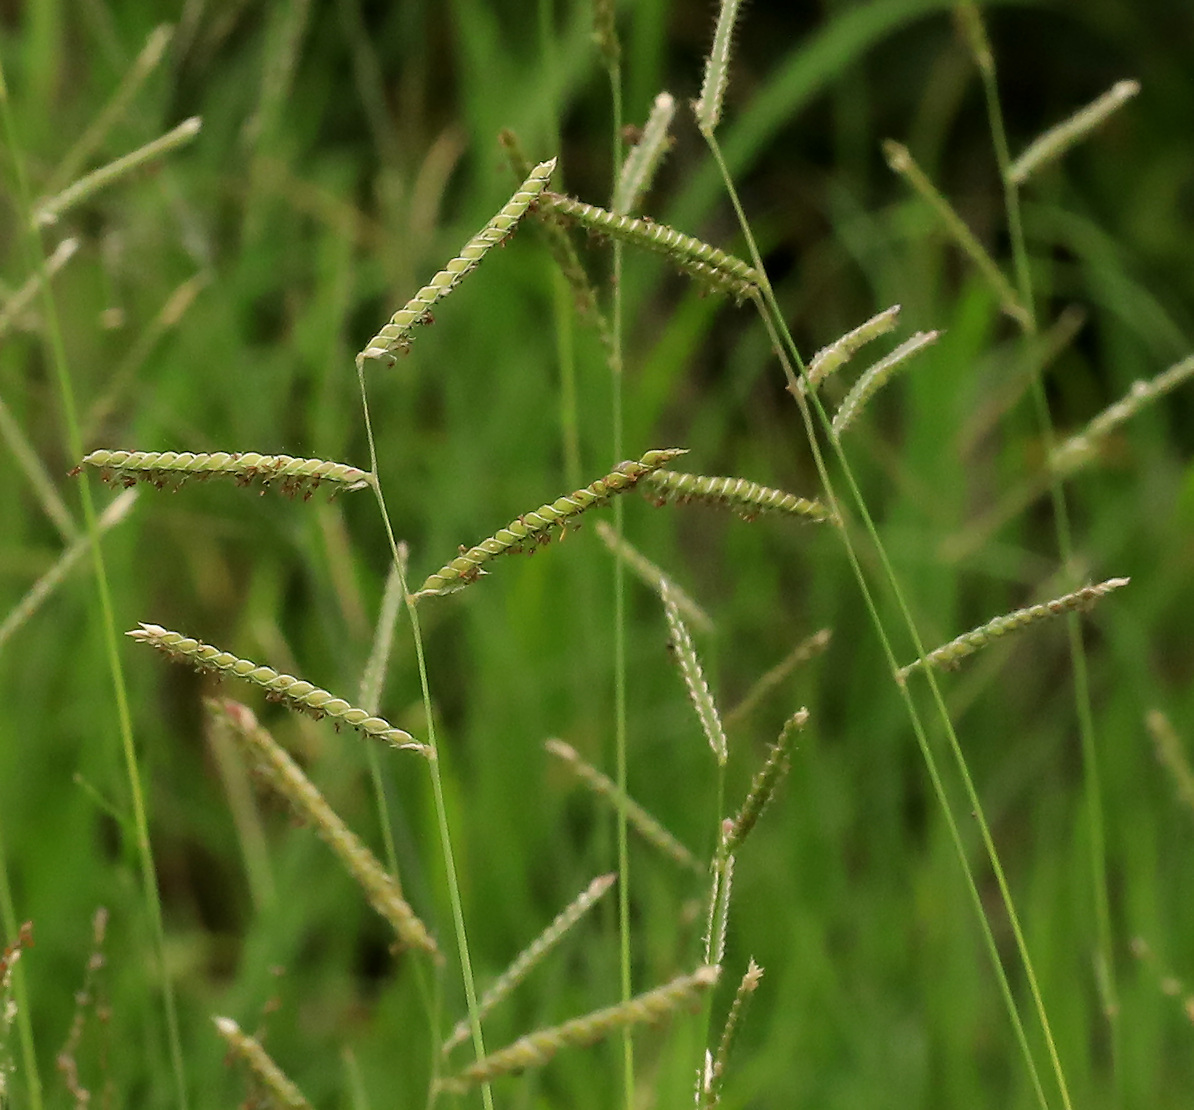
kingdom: Plantae
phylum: Tracheophyta
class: Liliopsida
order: Poales
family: Poaceae
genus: Urochloa
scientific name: Urochloa trichopus
